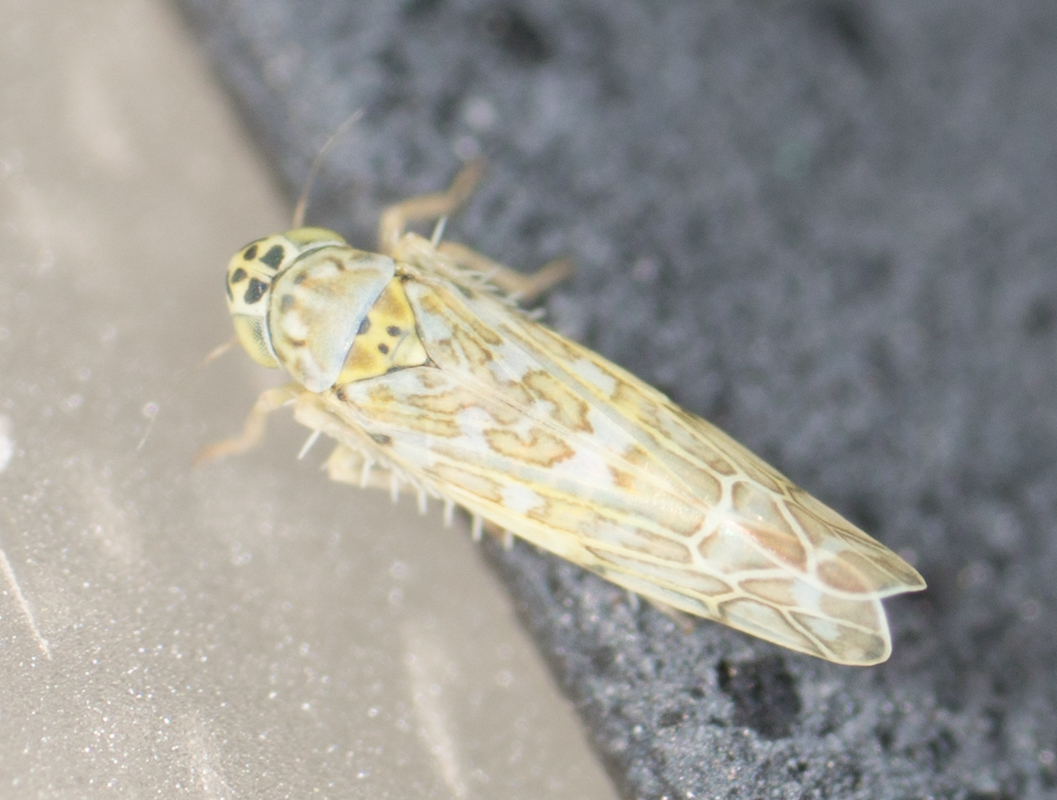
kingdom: Animalia
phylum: Arthropoda
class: Insecta
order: Hemiptera
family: Cicadellidae
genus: Eupteryx
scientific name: Eupteryx decemnotata
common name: Ligurian leafhopper
